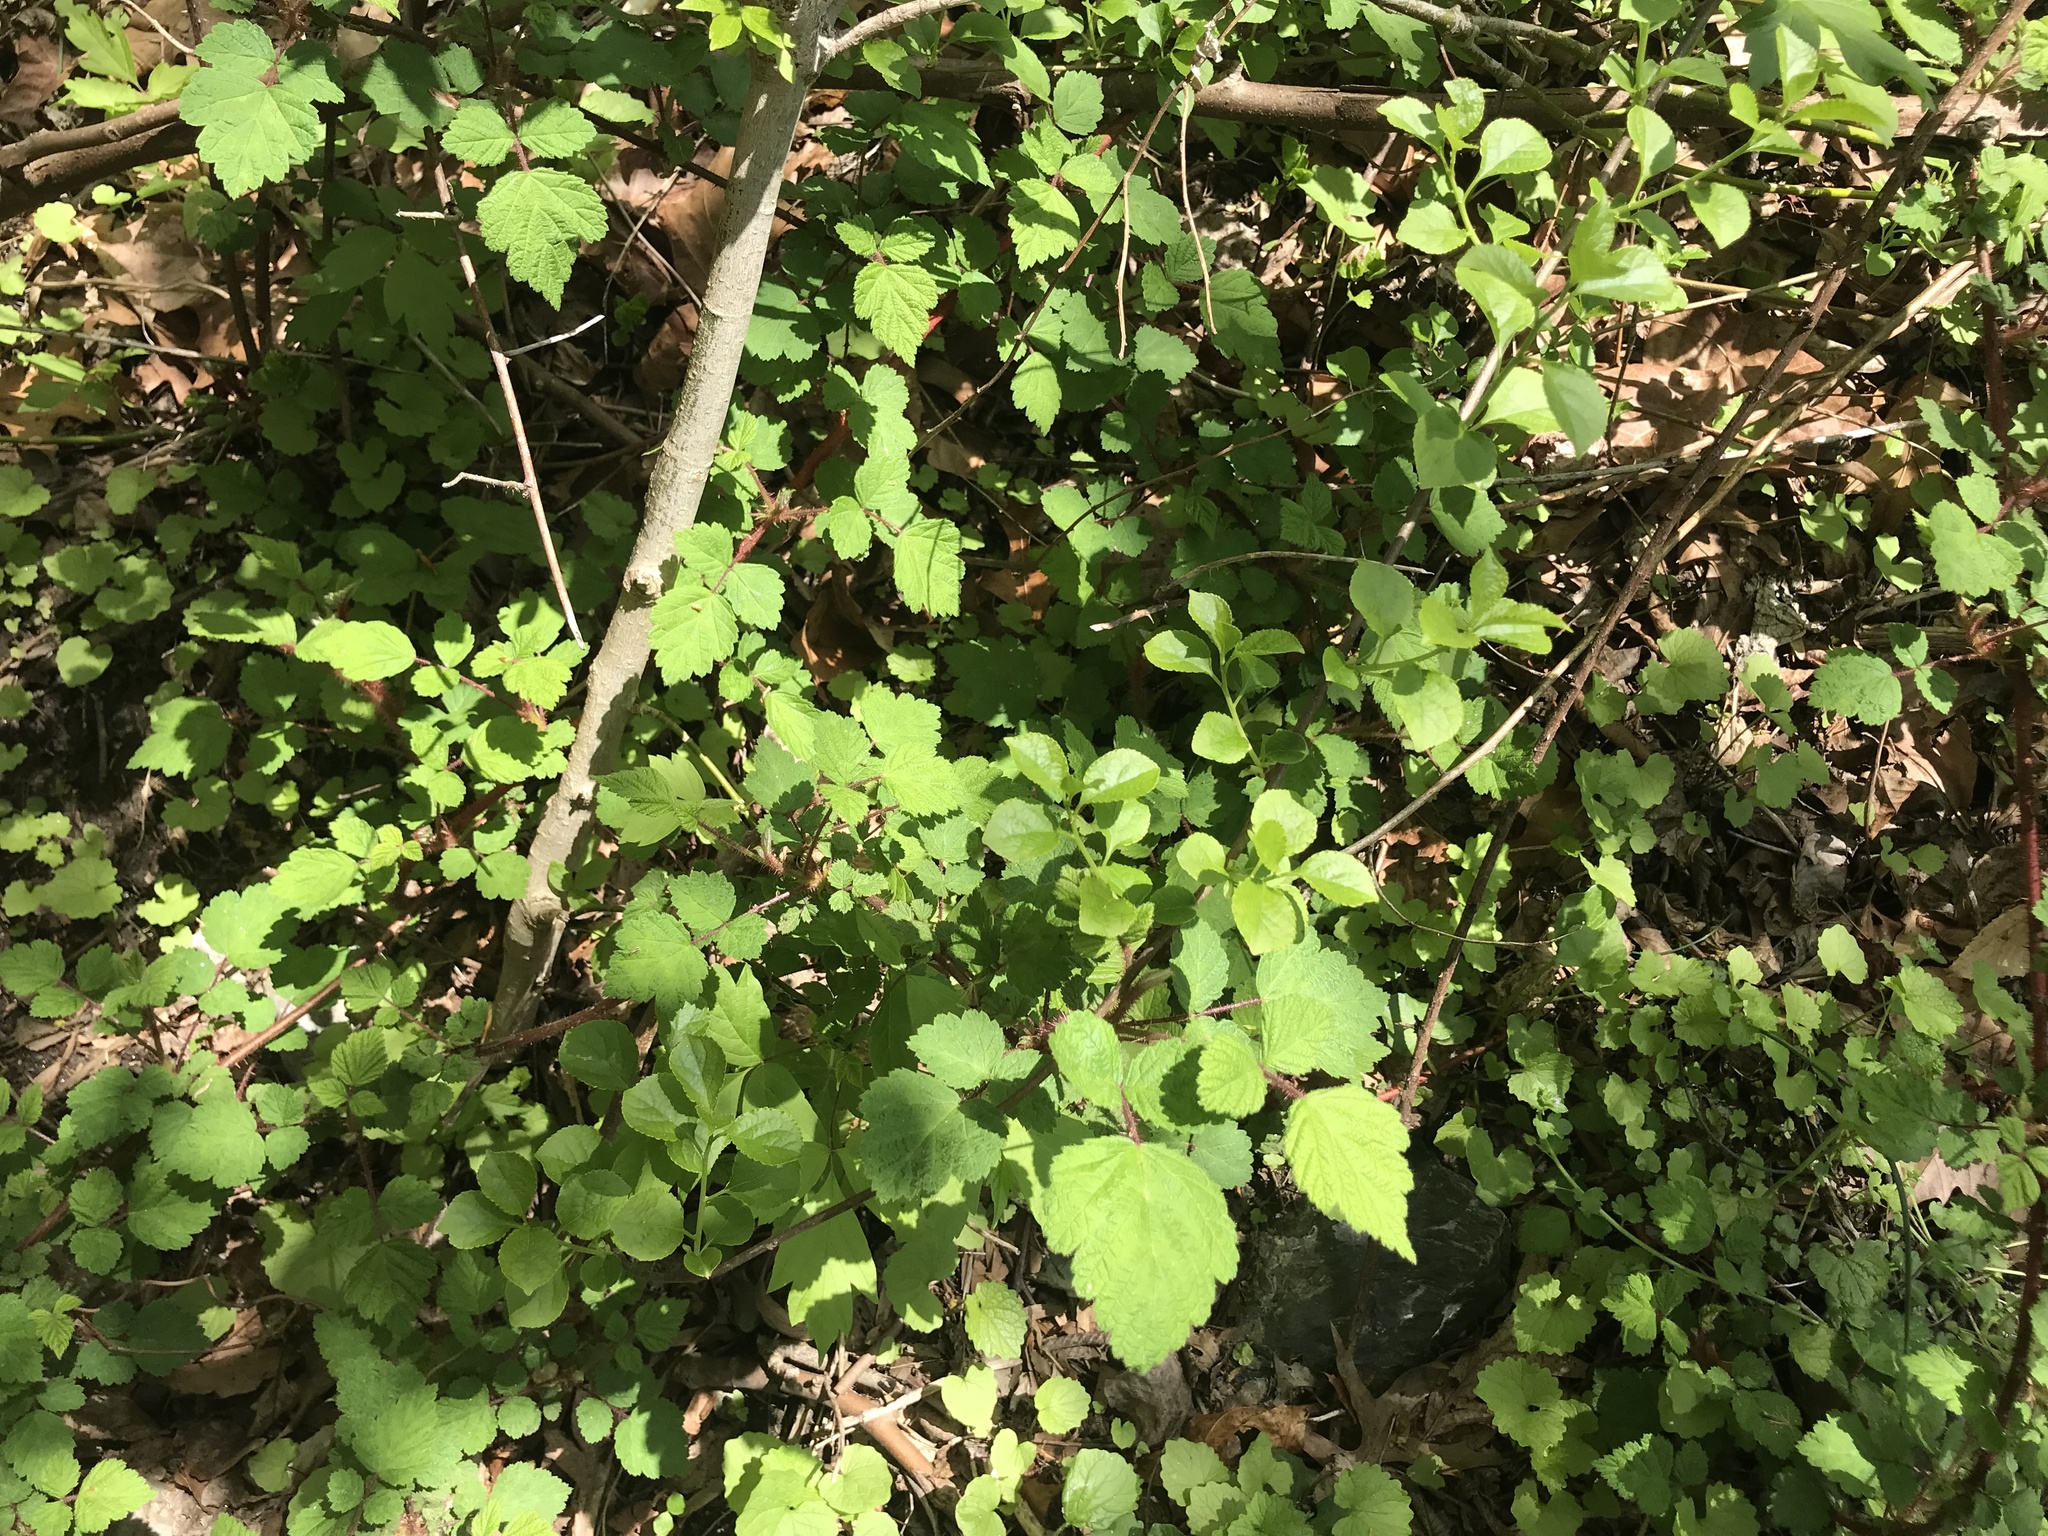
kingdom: Plantae
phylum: Tracheophyta
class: Magnoliopsida
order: Rosales
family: Rosaceae
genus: Rubus
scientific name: Rubus phoenicolasius
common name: Japanese wineberry
